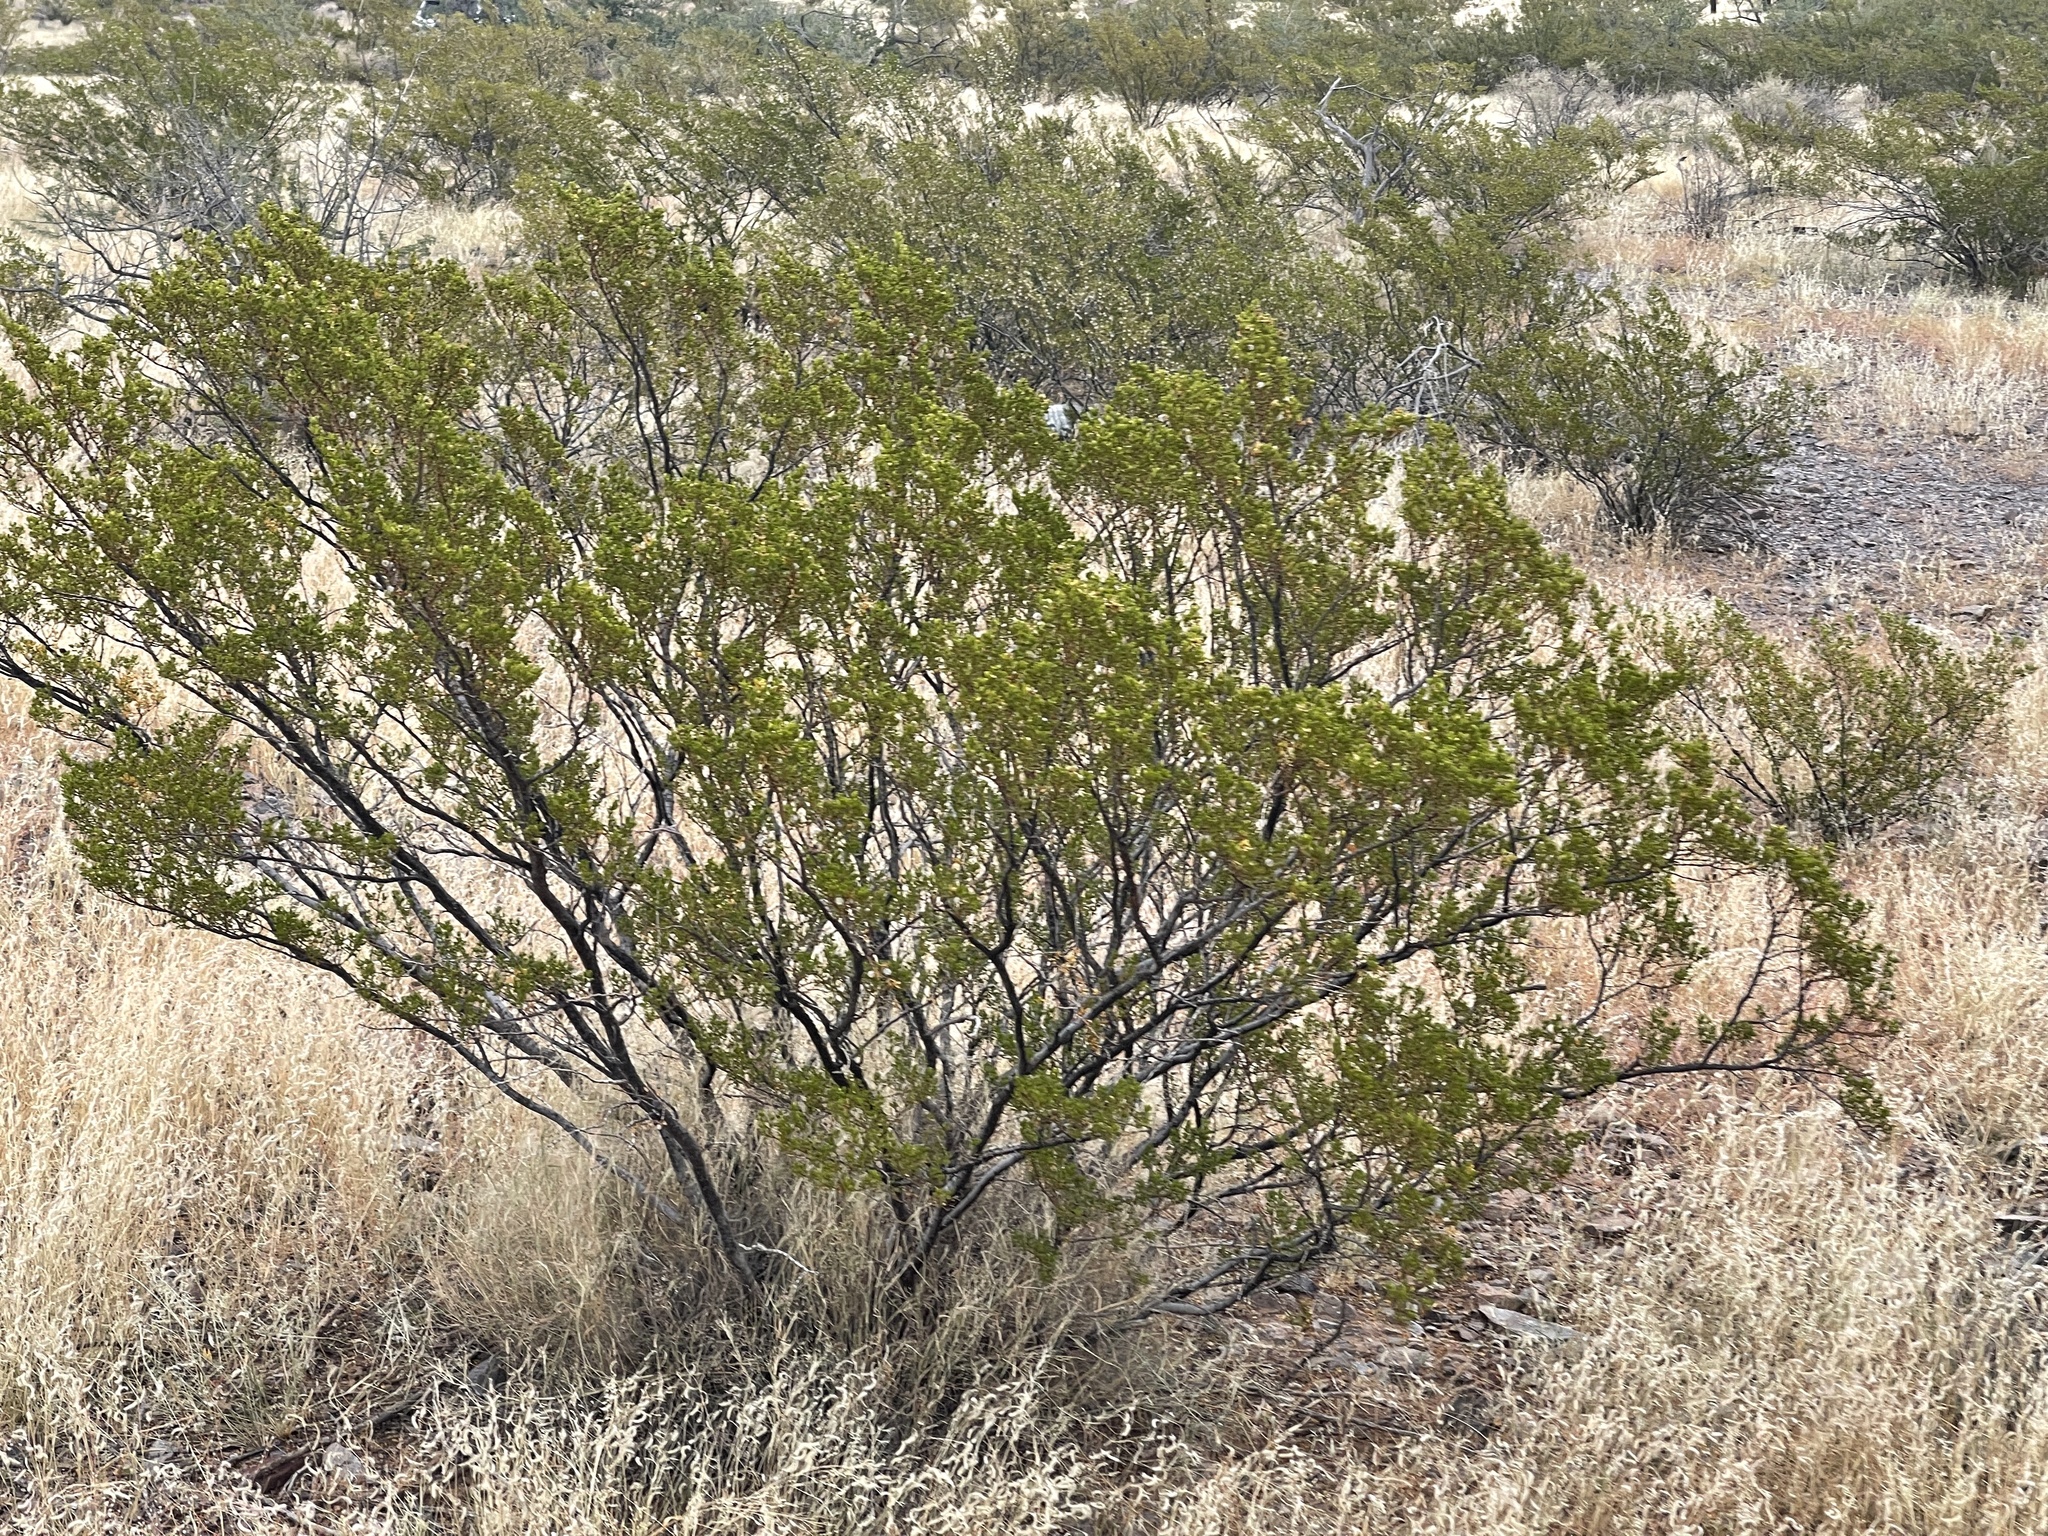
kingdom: Plantae
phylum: Tracheophyta
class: Magnoliopsida
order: Zygophyllales
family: Zygophyllaceae
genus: Larrea
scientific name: Larrea tridentata
